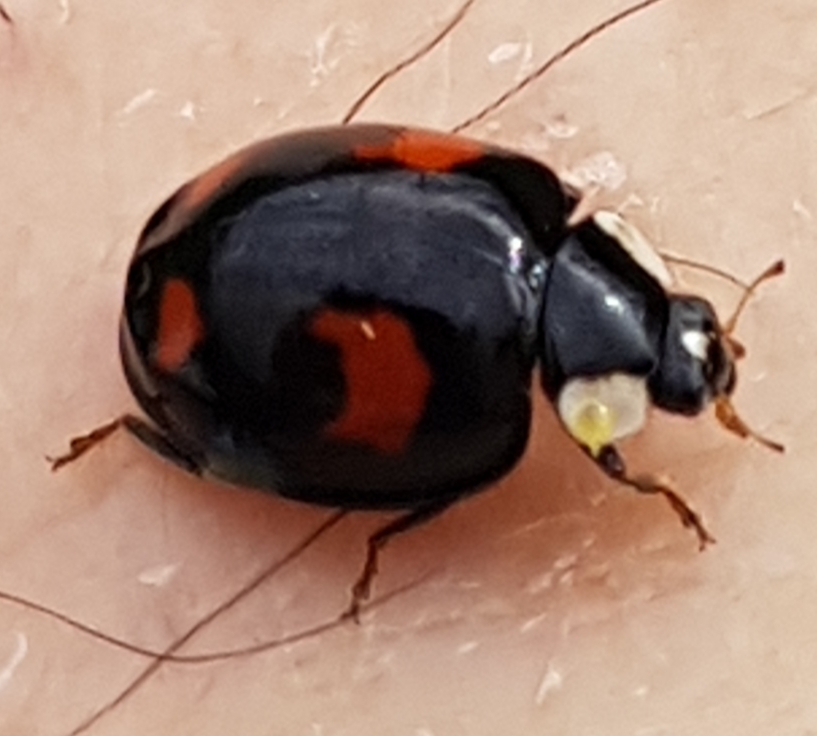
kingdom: Animalia
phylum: Arthropoda
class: Insecta
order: Coleoptera
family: Coccinellidae
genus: Harmonia
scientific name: Harmonia axyridis
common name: Harlequin ladybird
